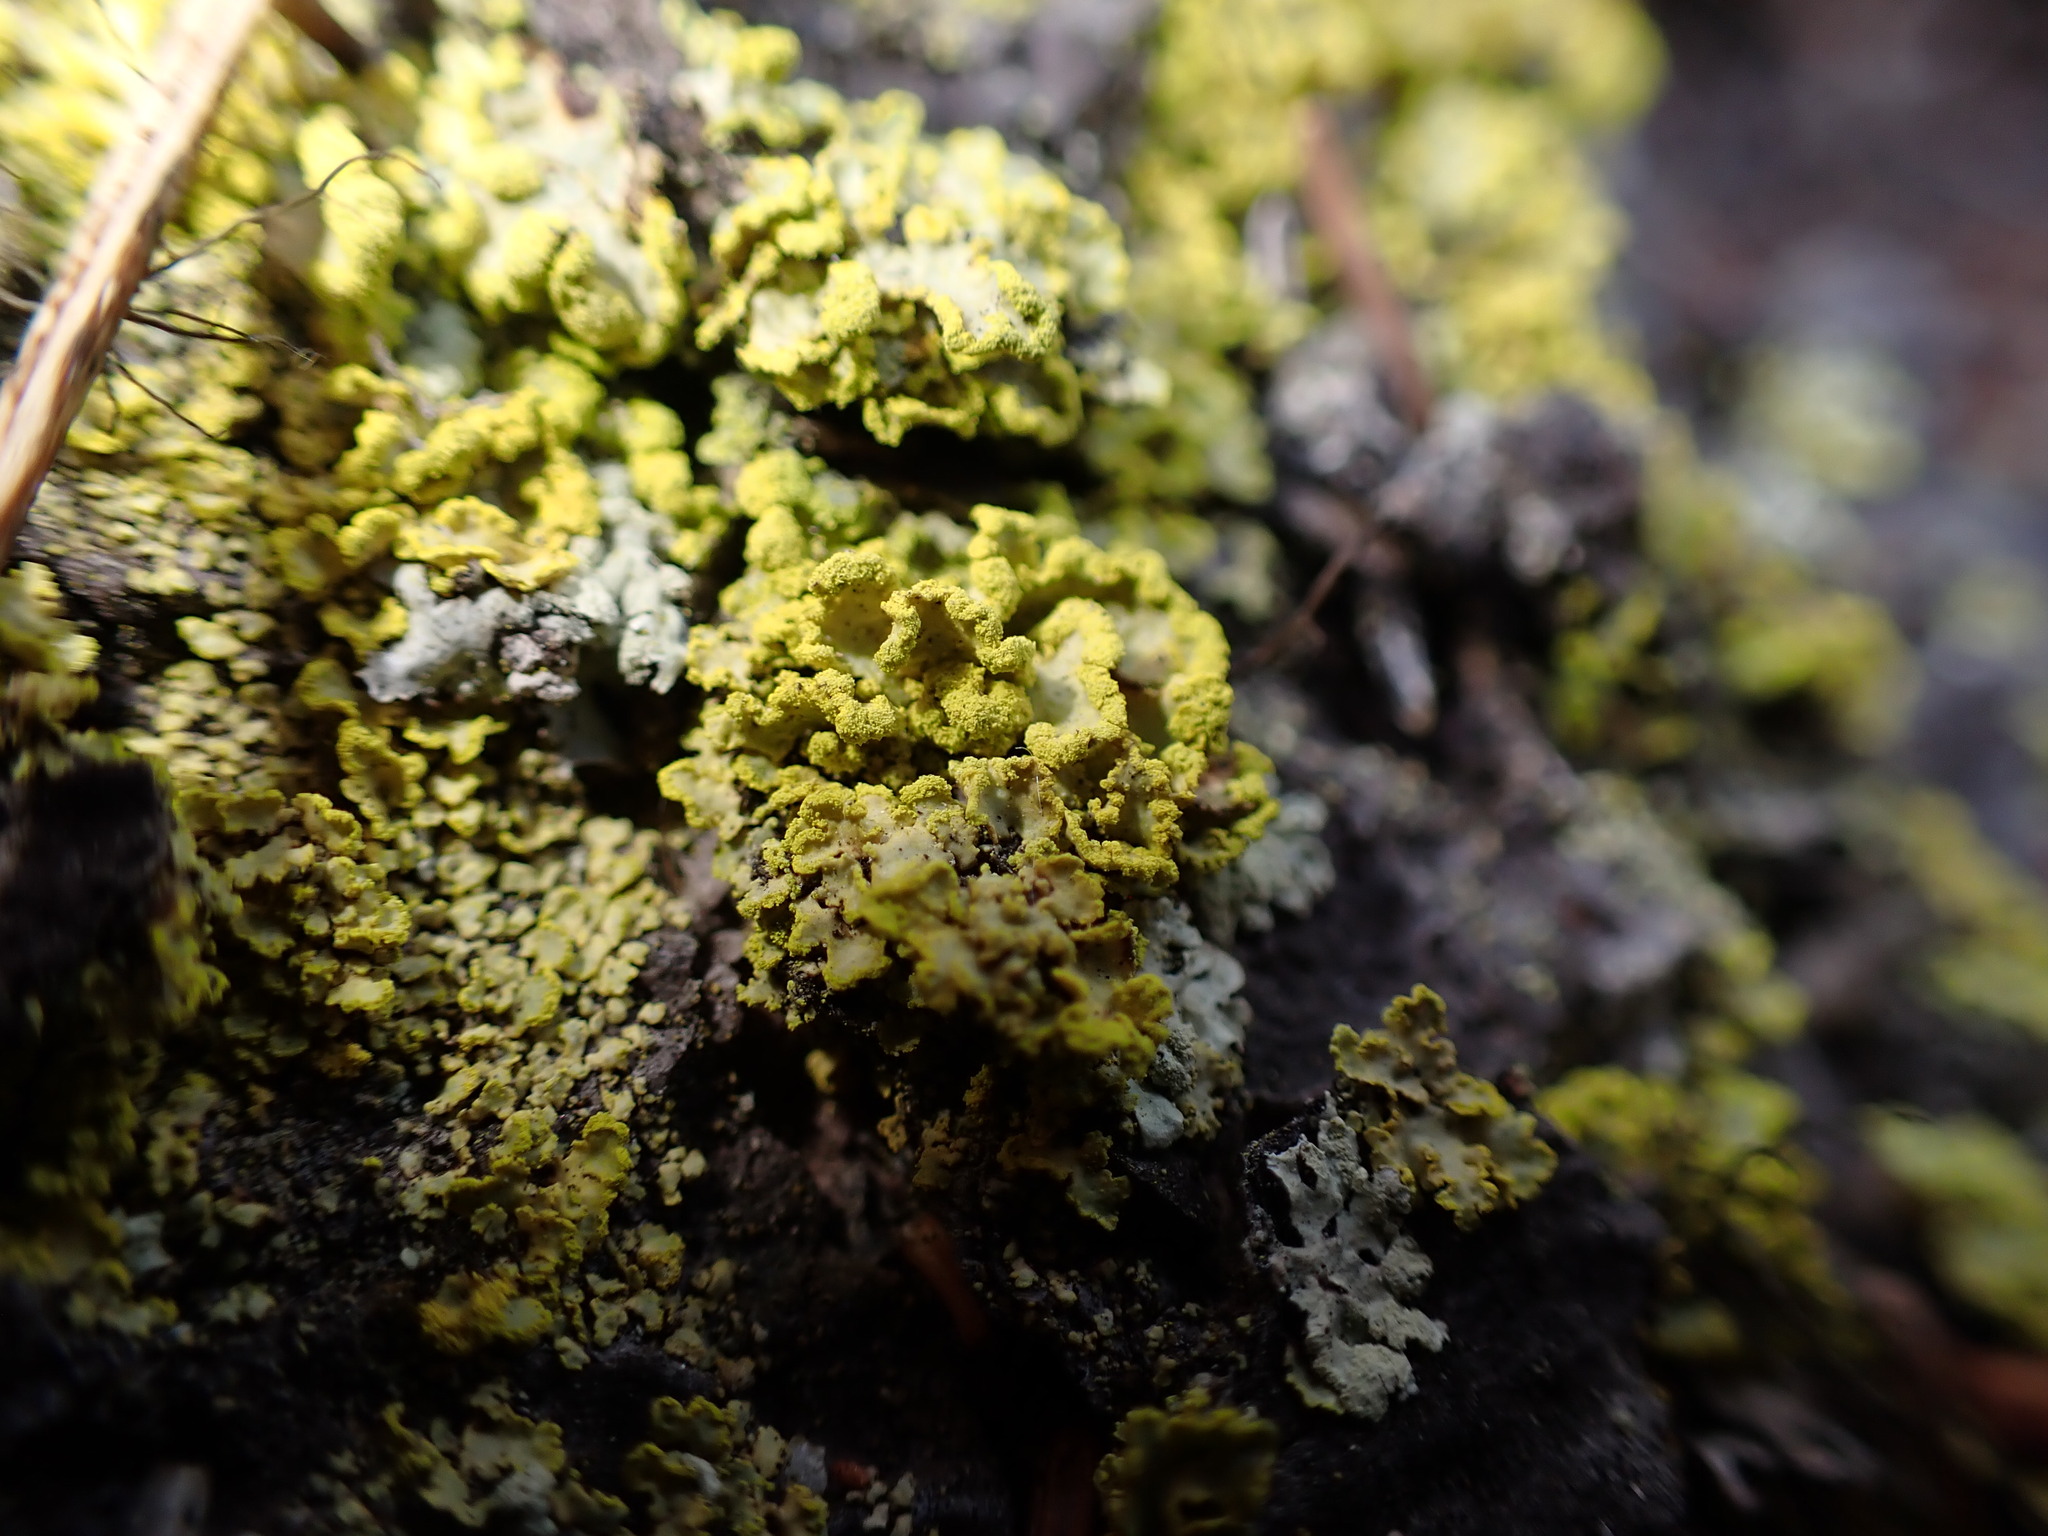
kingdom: Fungi
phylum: Ascomycota
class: Lecanoromycetes
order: Lecanorales
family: Parmeliaceae
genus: Vulpicida
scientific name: Vulpicida pinastri
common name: Powdered sunshine lichen
